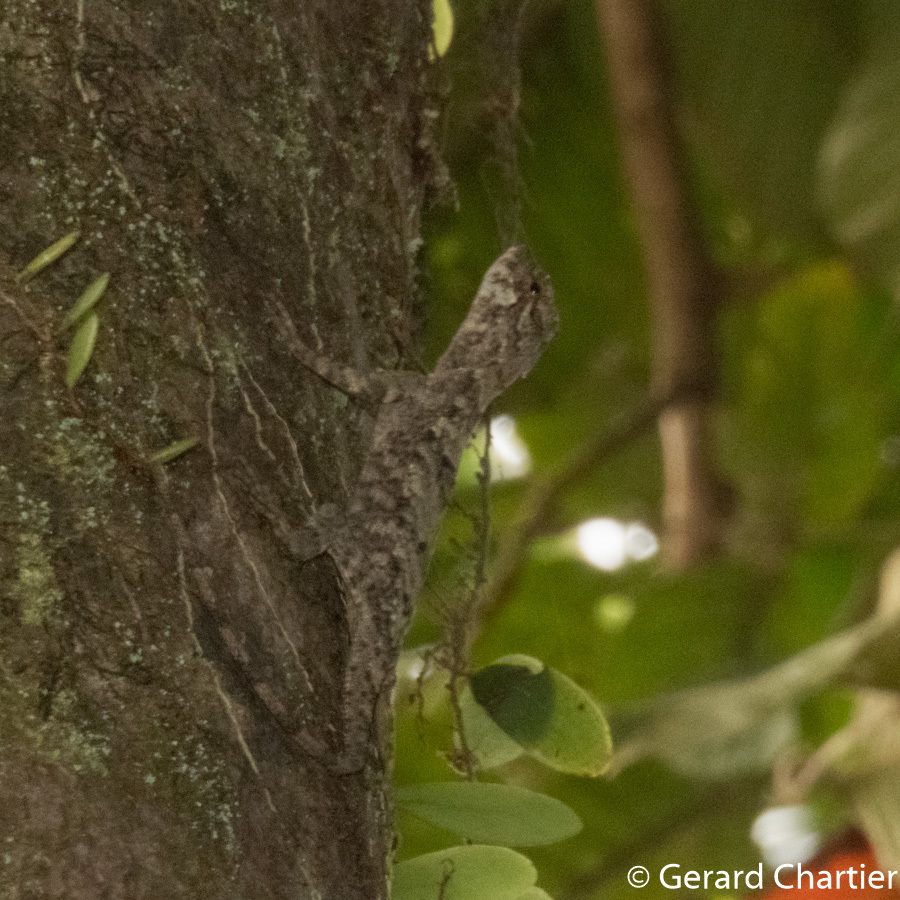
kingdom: Animalia
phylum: Chordata
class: Squamata
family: Agamidae
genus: Draco
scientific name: Draco maculatus
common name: Spotted flying dragon
